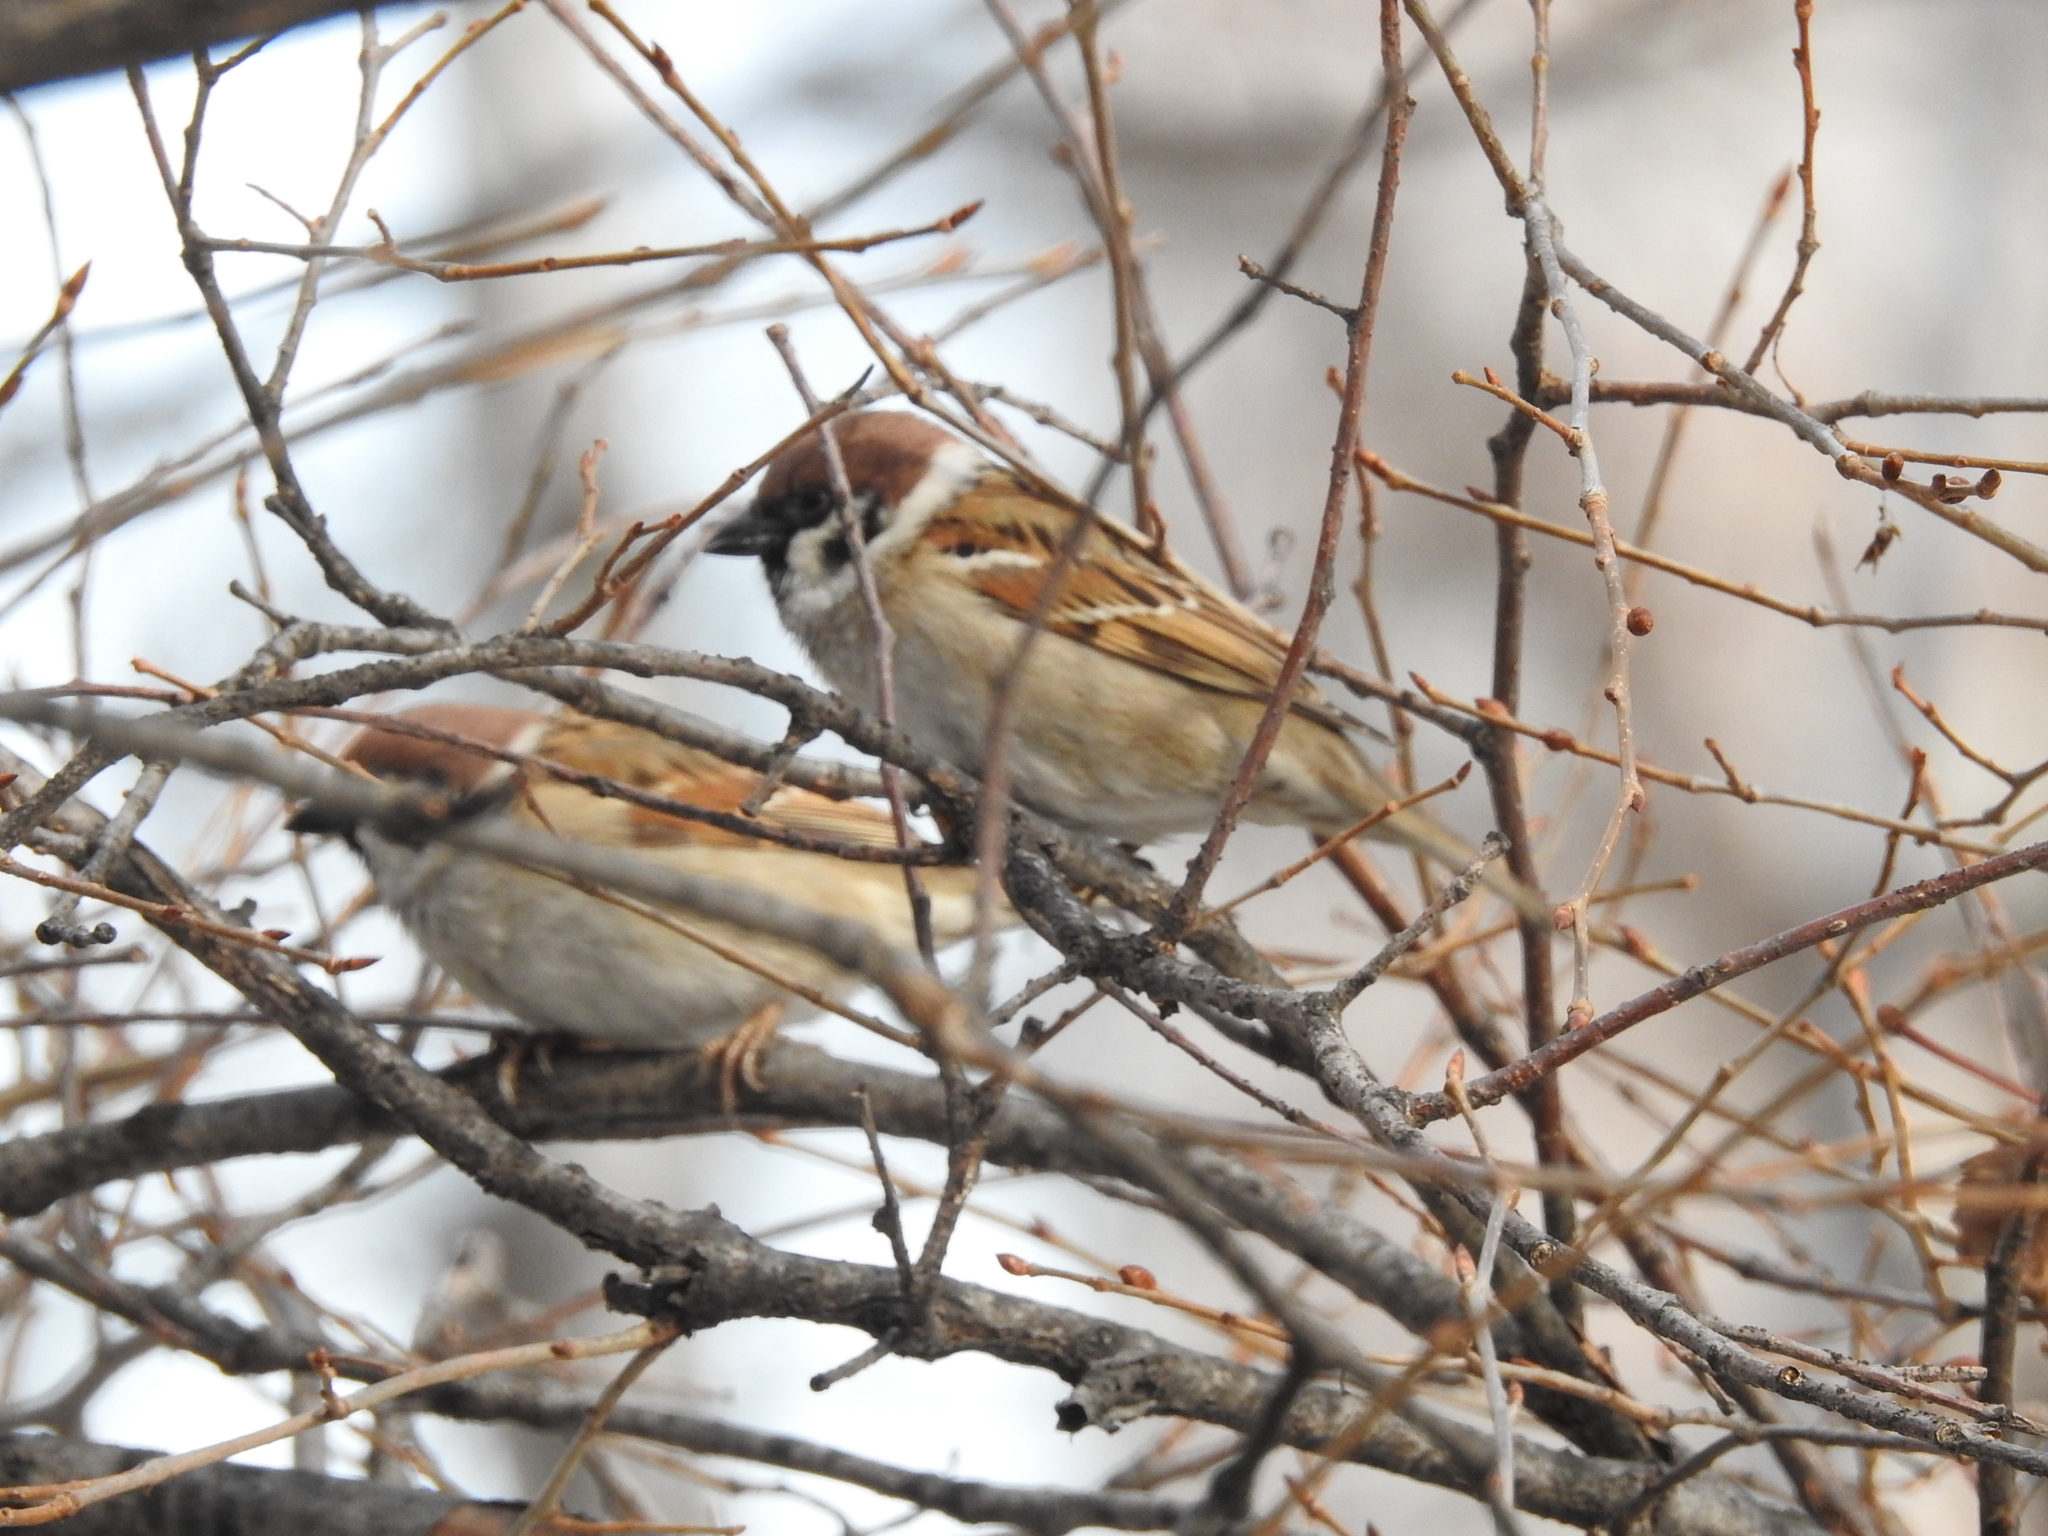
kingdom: Animalia
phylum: Chordata
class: Aves
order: Passeriformes
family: Passeridae
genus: Passer
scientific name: Passer montanus
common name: Eurasian tree sparrow
